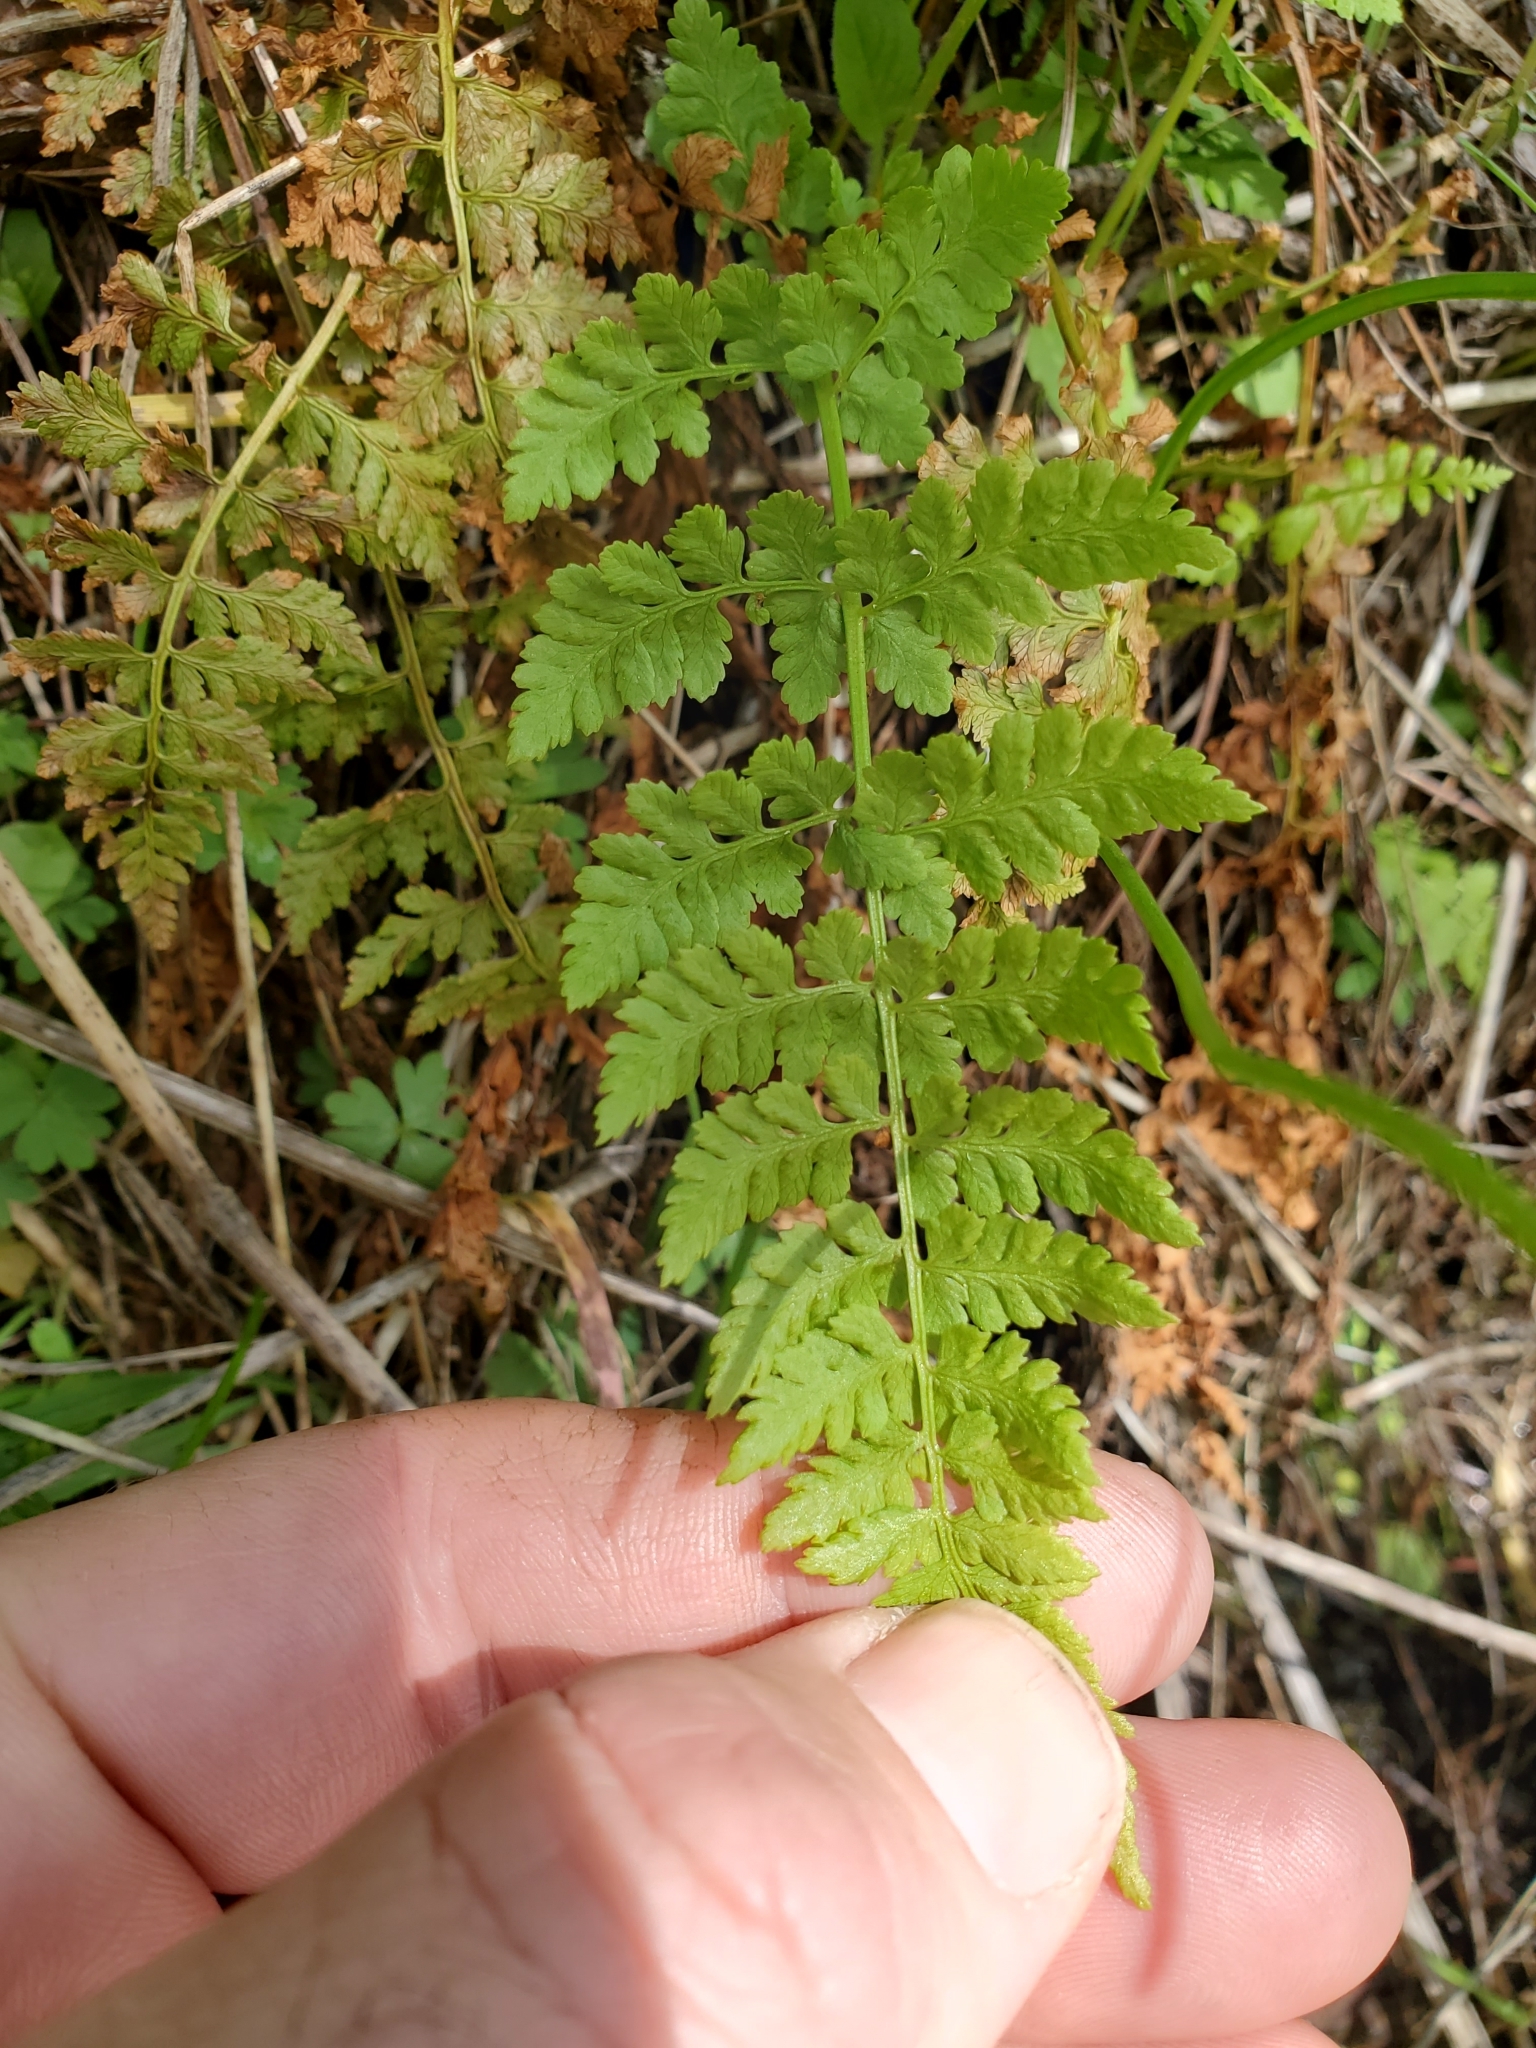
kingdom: Plantae
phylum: Tracheophyta
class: Polypodiopsida
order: Polypodiales
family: Cystopteridaceae
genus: Cystopteris
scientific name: Cystopteris fragilis
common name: Brittle bladder fern
